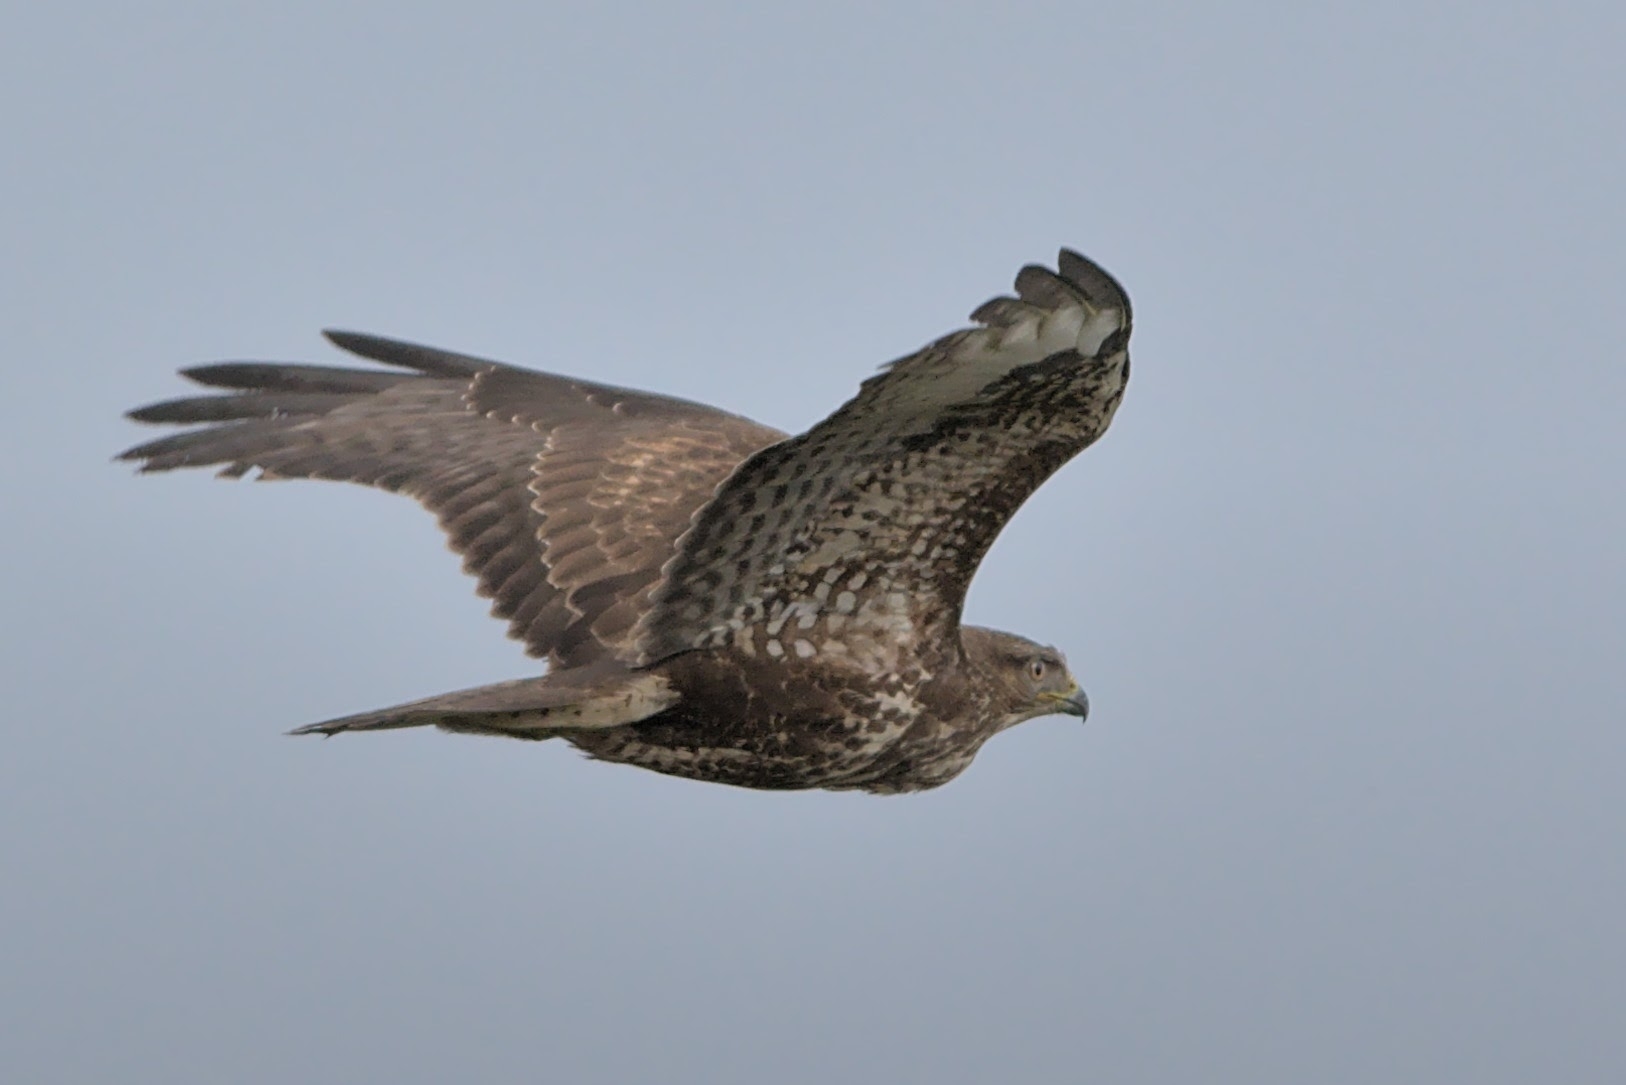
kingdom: Animalia
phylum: Chordata
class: Aves
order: Accipitriformes
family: Accipitridae
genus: Buteo
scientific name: Buteo buteo
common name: Common buzzard
